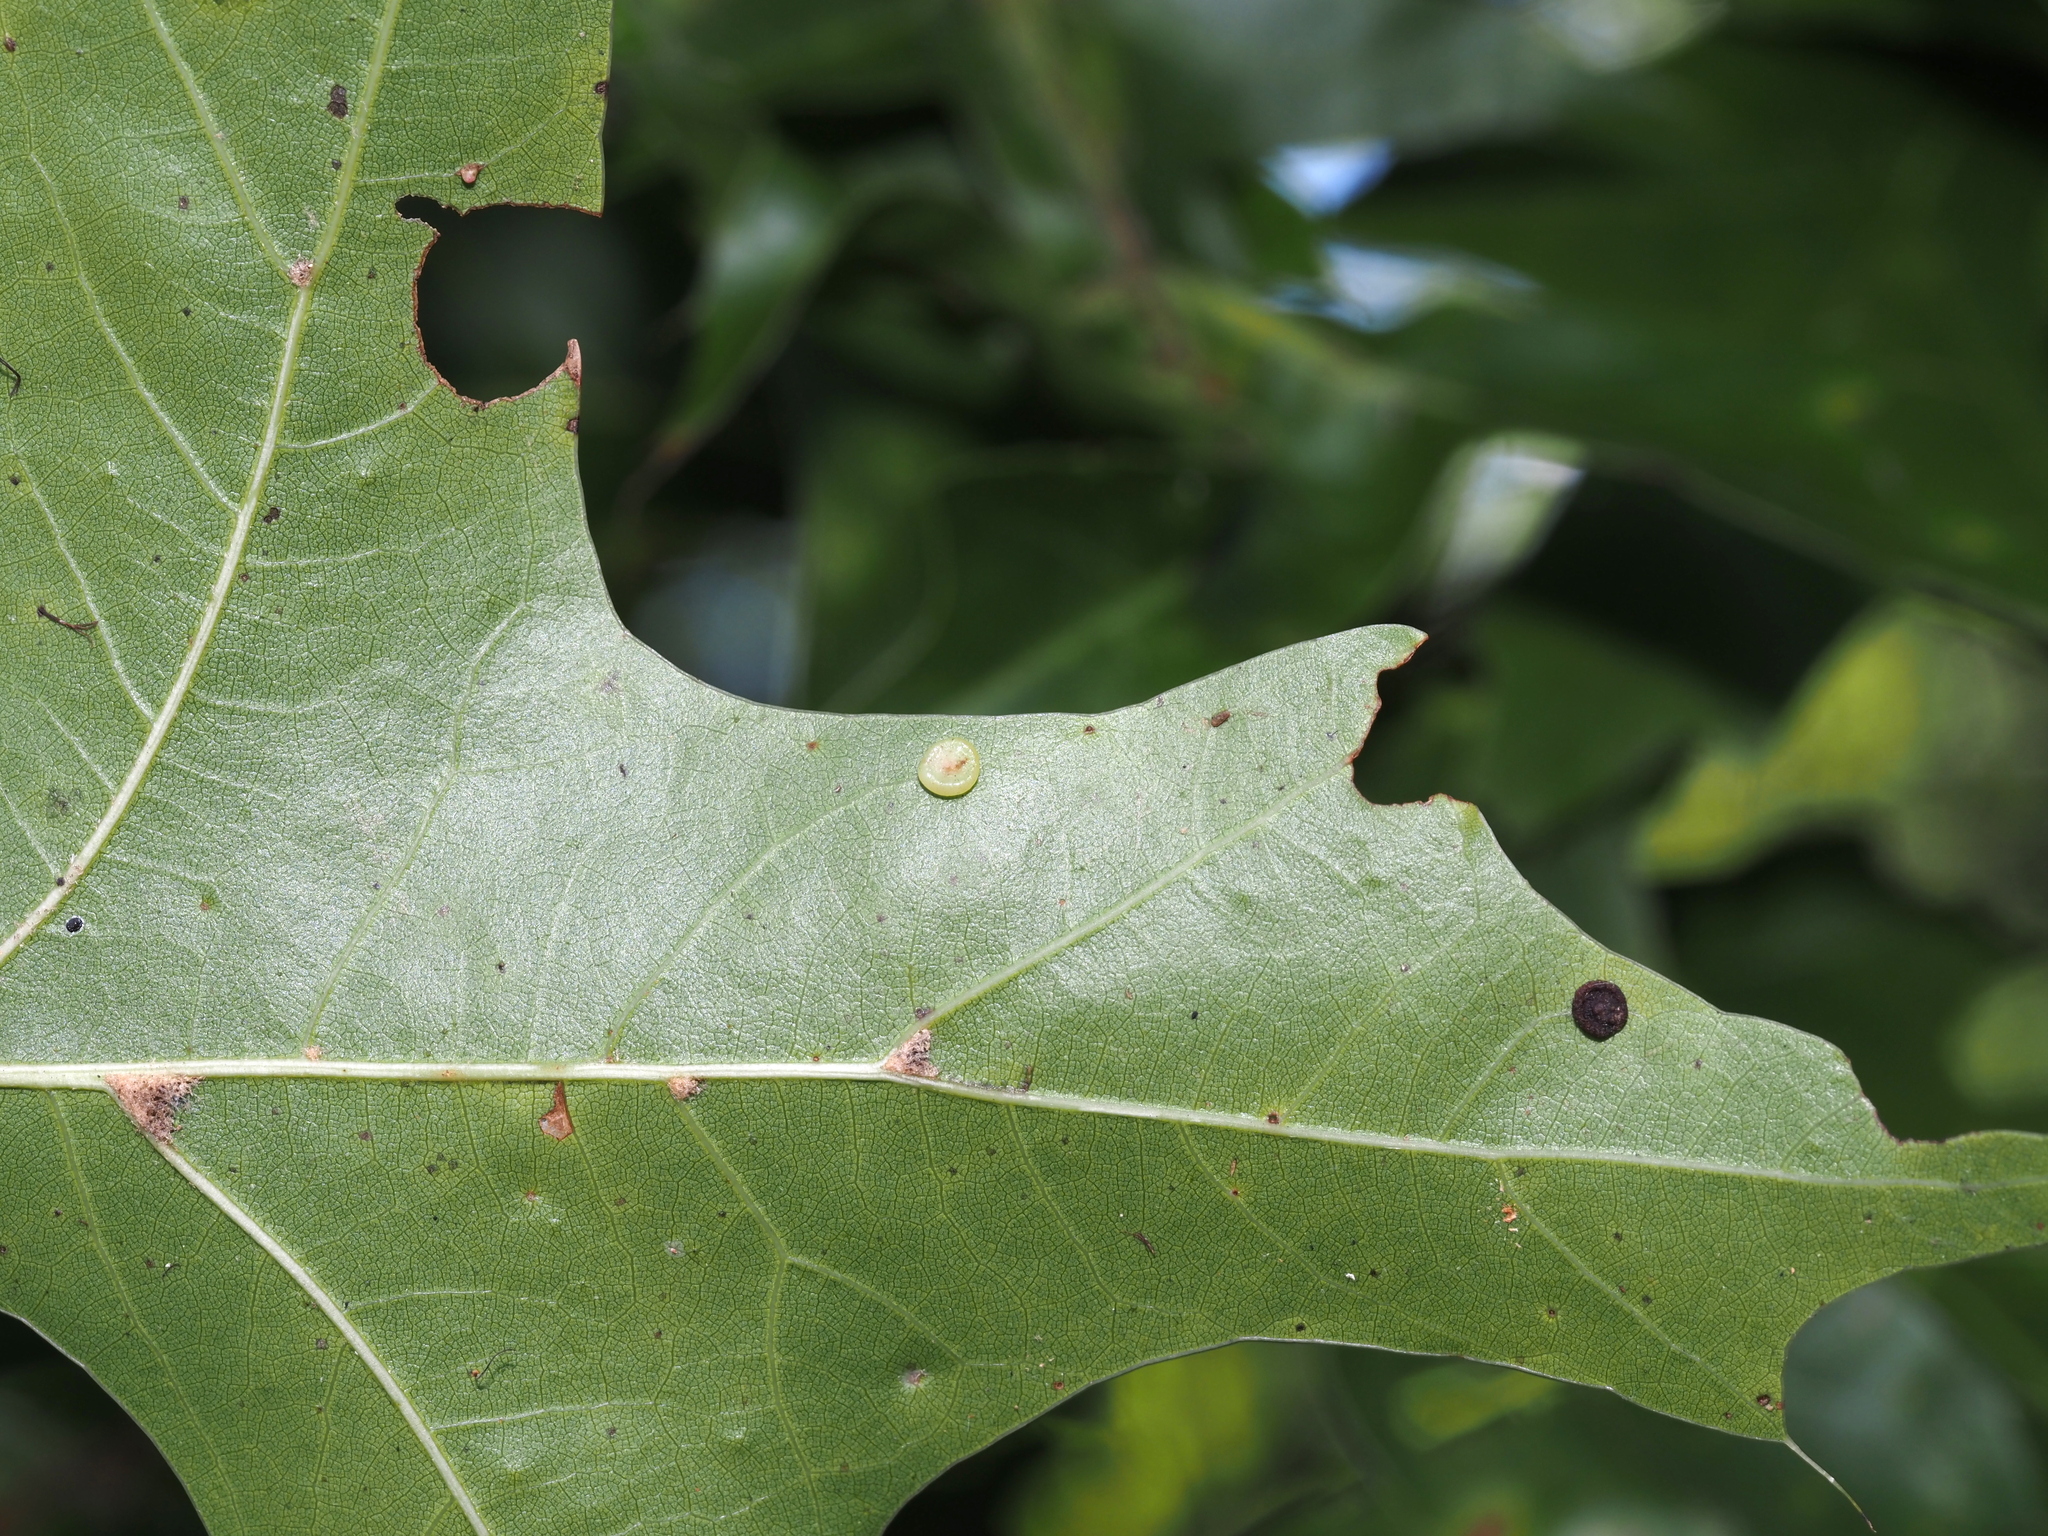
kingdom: Animalia
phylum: Arthropoda
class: Insecta
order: Hymenoptera
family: Cynipidae
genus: Dryocosmus
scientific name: Dryocosmus
